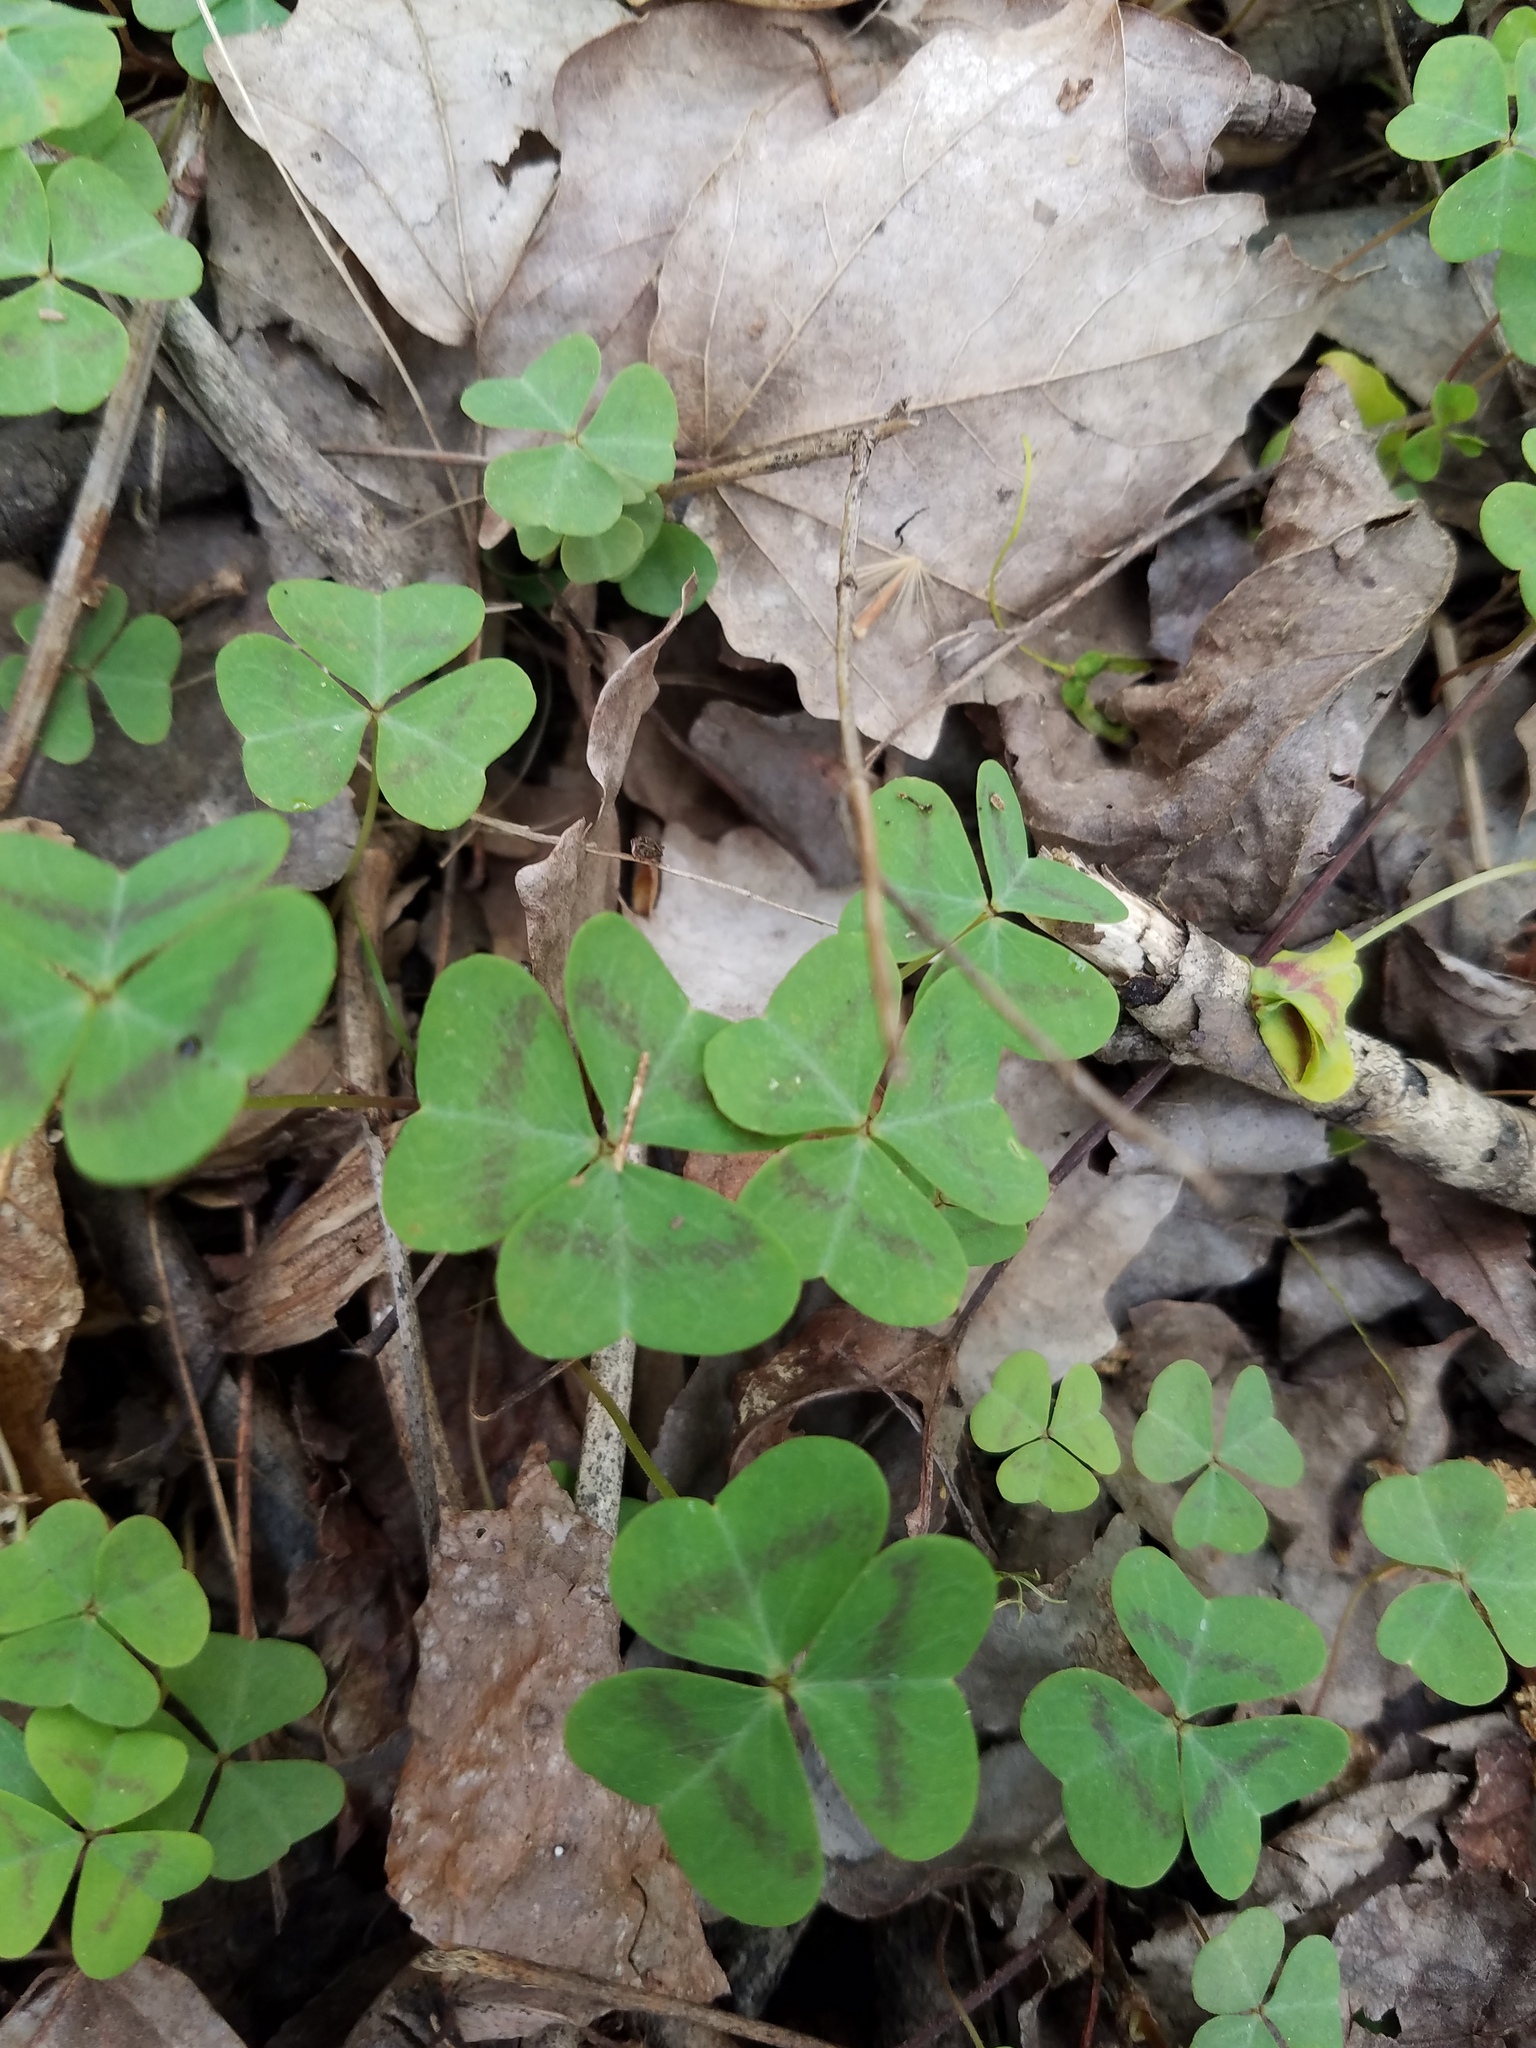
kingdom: Plantae
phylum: Tracheophyta
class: Magnoliopsida
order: Oxalidales
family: Oxalidaceae
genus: Oxalis
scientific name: Oxalis violacea
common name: Violet wood-sorrel
